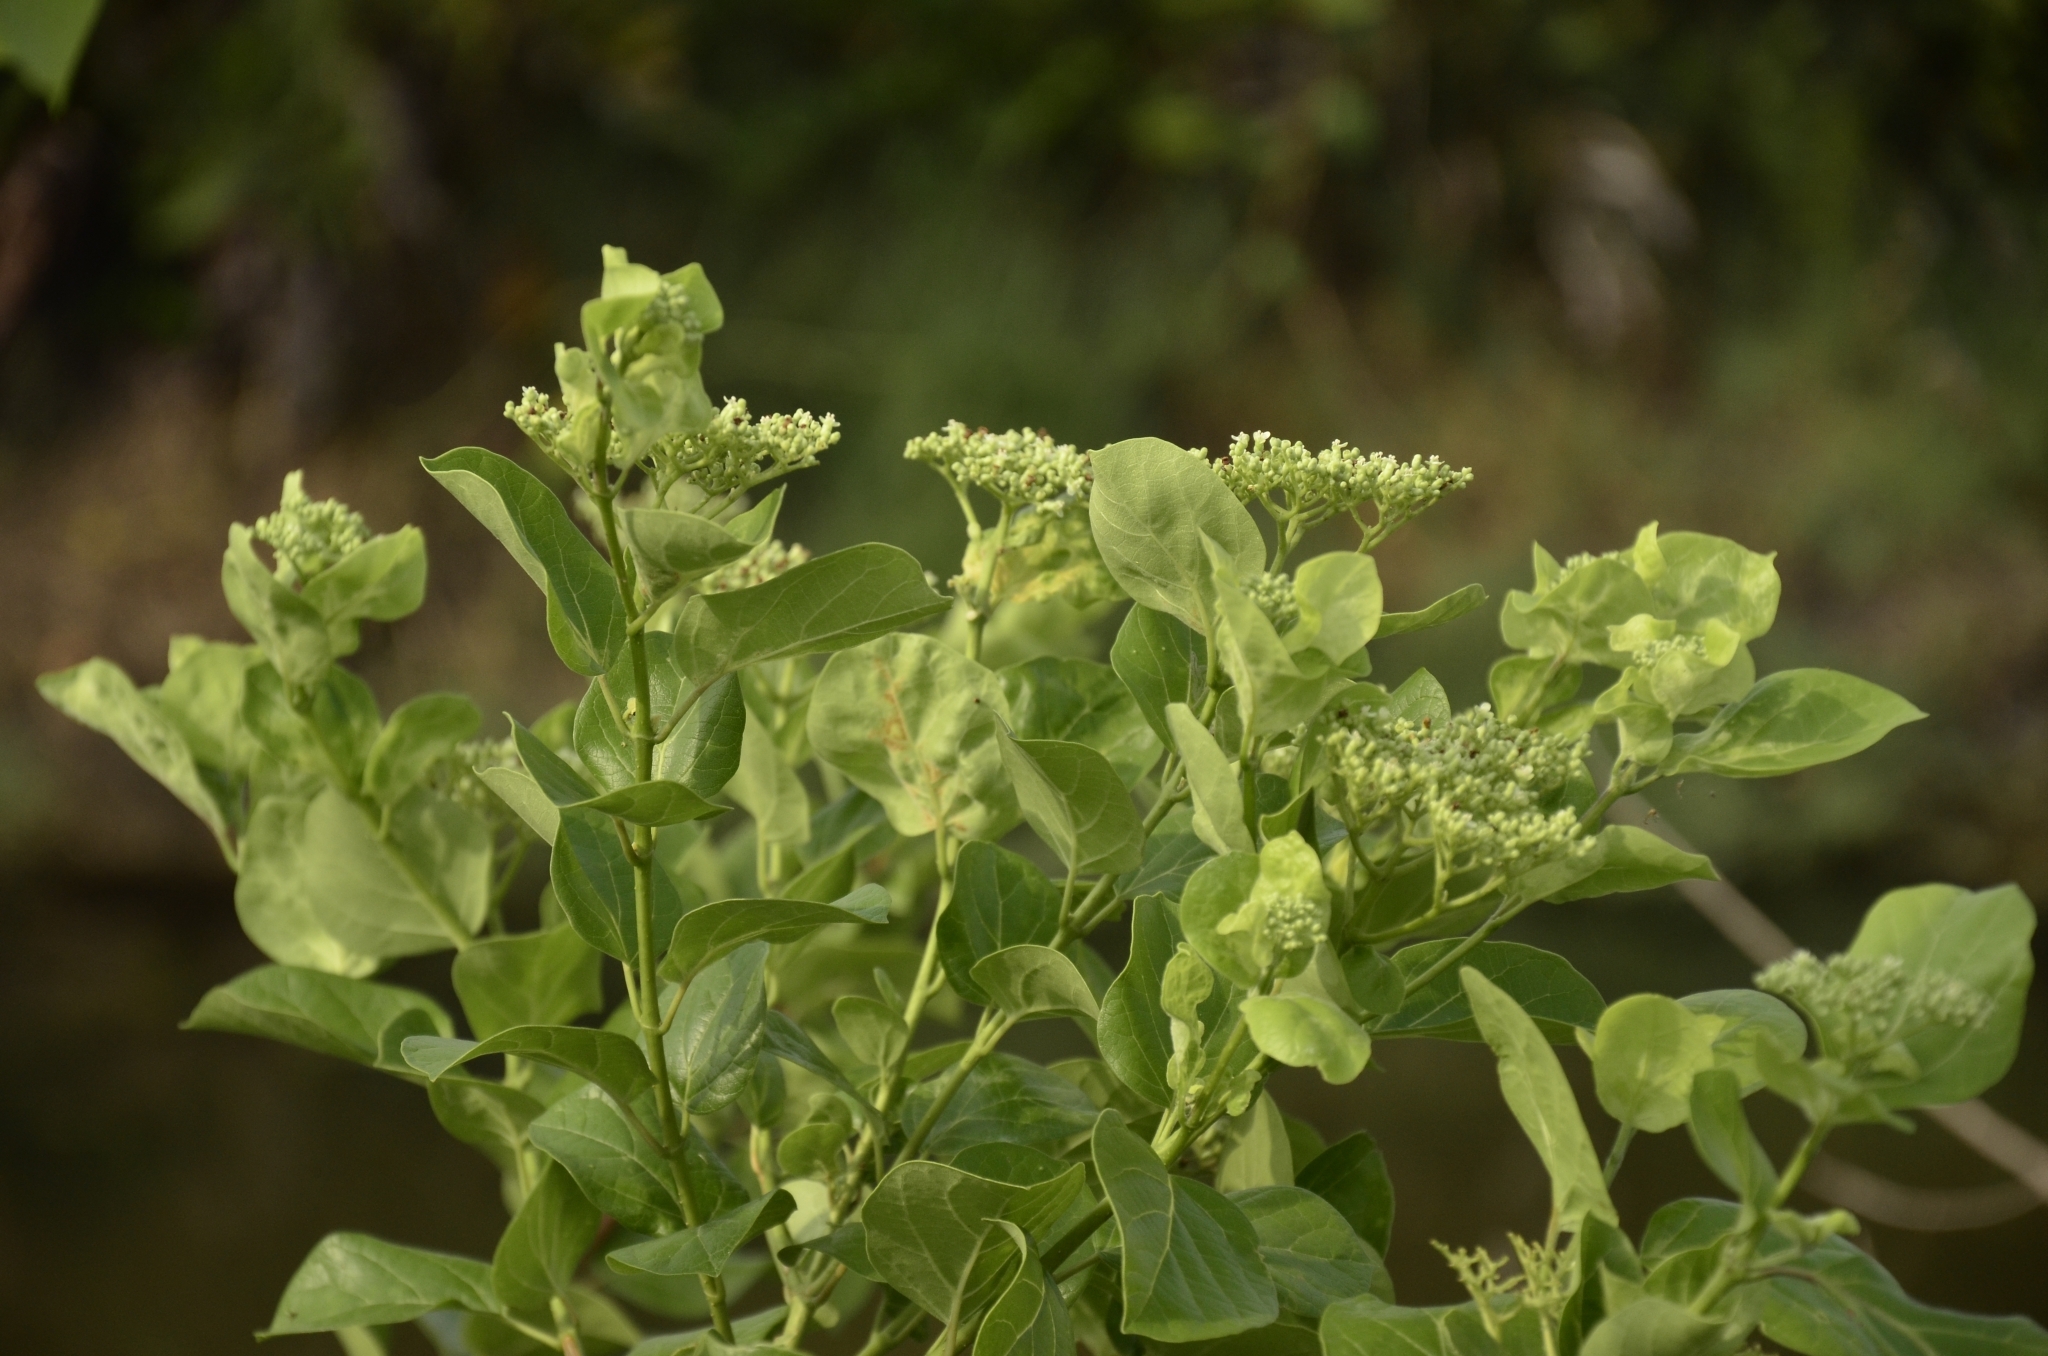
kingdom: Plantae
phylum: Tracheophyta
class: Magnoliopsida
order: Lamiales
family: Lamiaceae
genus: Premna
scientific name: Premna serratifolia
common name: Bastard guelder
